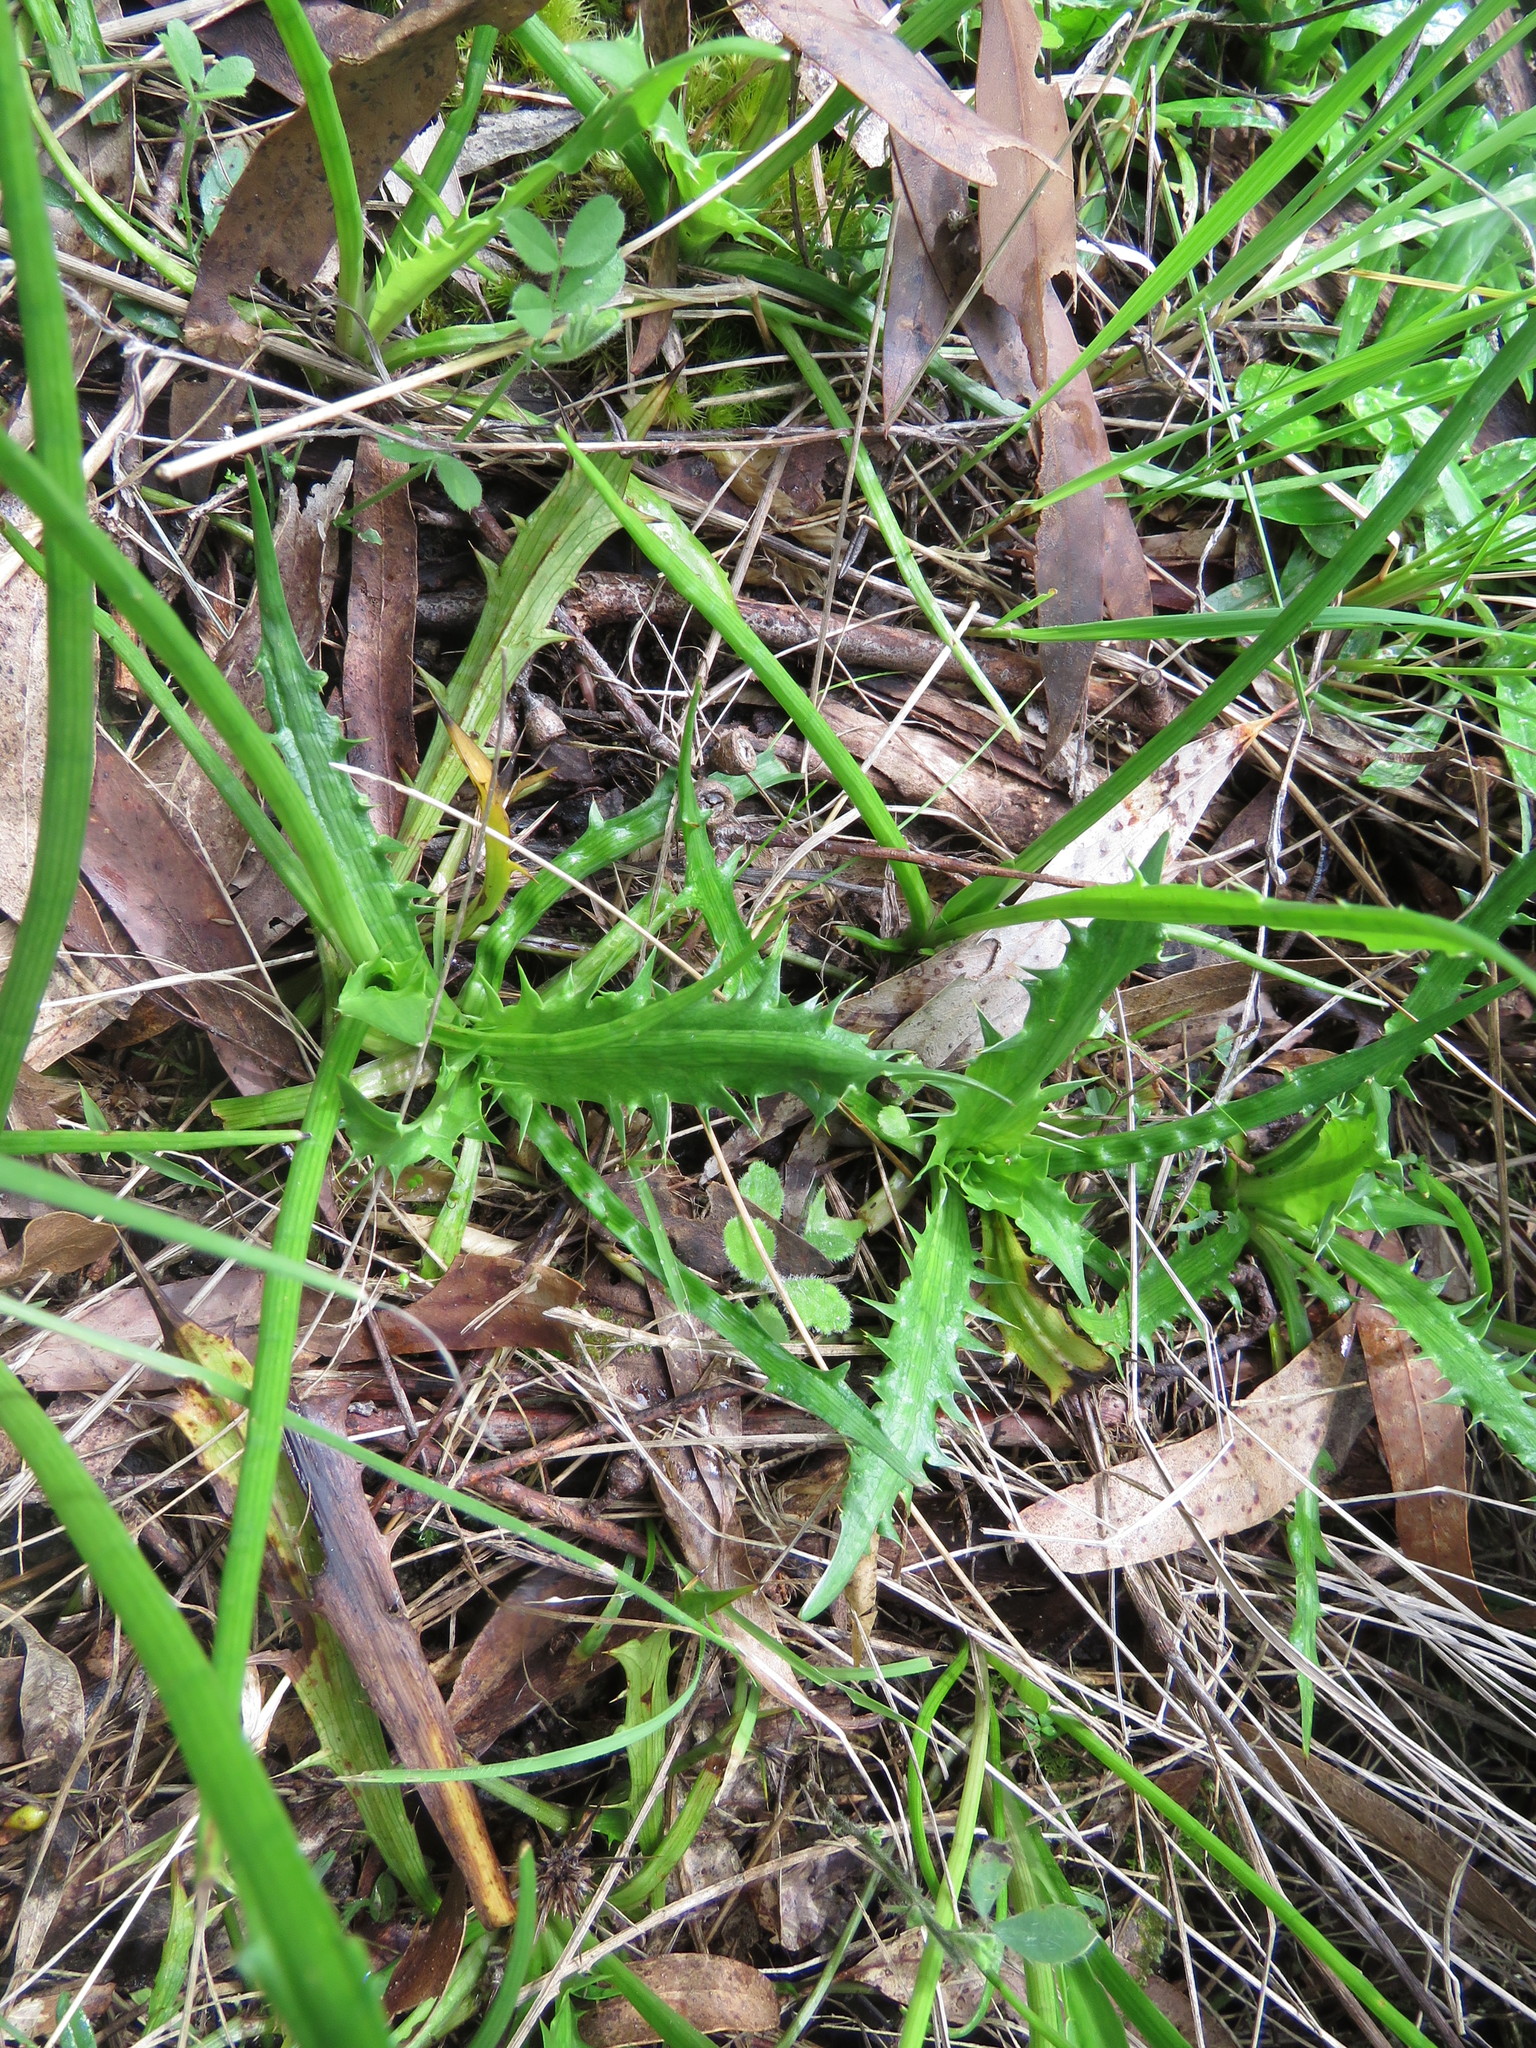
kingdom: Plantae
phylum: Tracheophyta
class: Magnoliopsida
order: Apiales
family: Apiaceae
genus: Eryngium
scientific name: Eryngium vesiculosum
